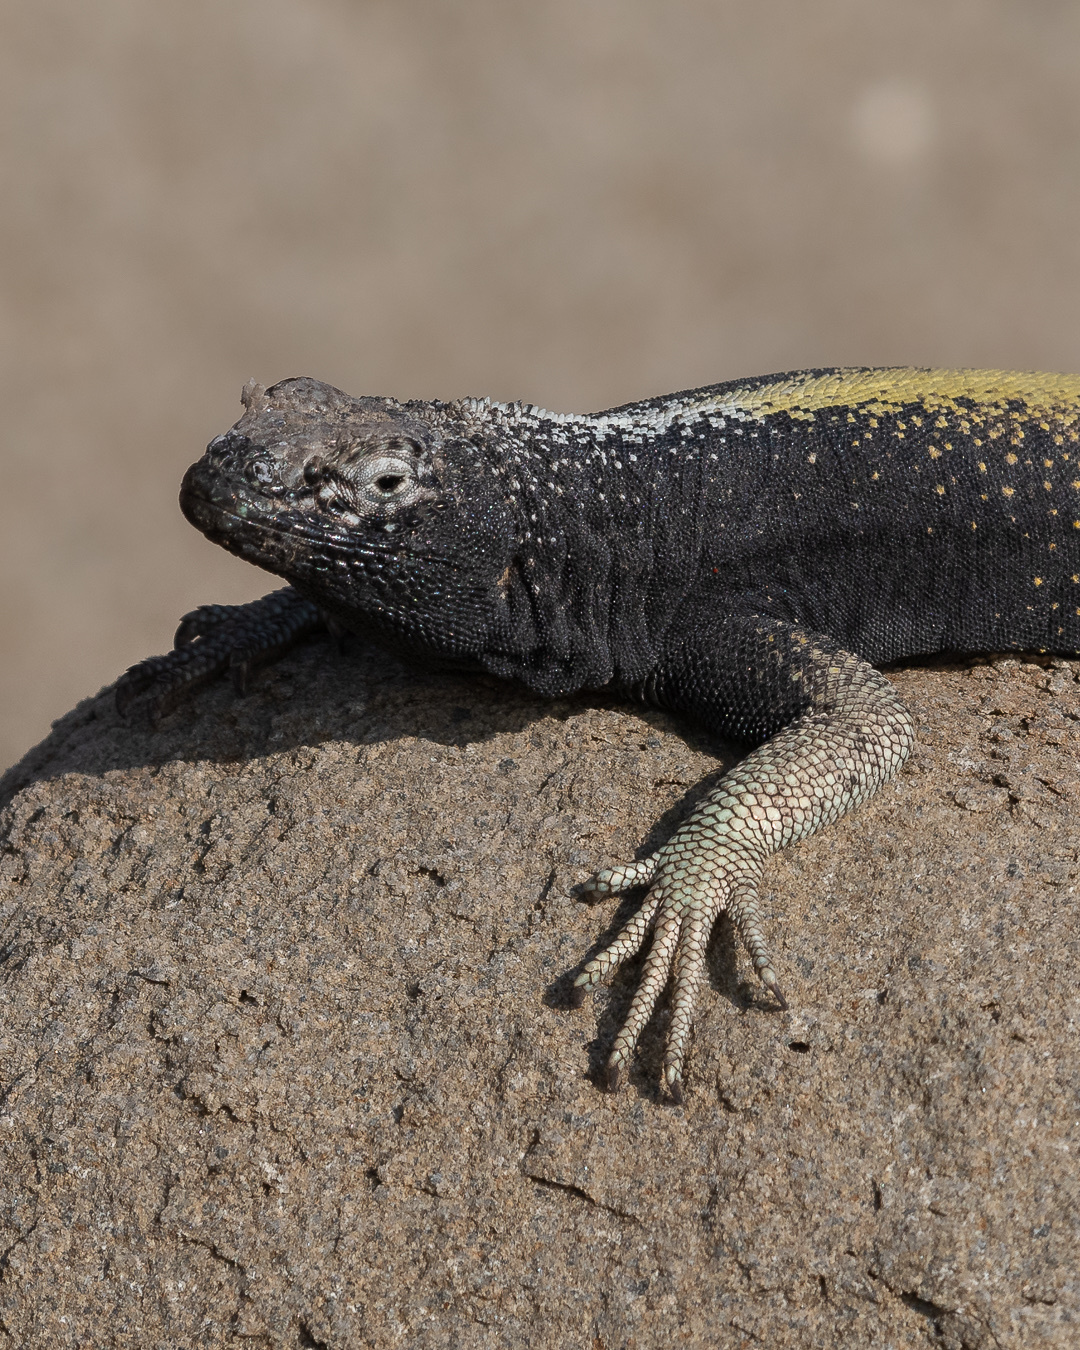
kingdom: Animalia
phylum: Chordata
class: Squamata
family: Tropiduridae
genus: Microlophus
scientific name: Microlophus quadrivittatus
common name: Four-banded pacific iguana
